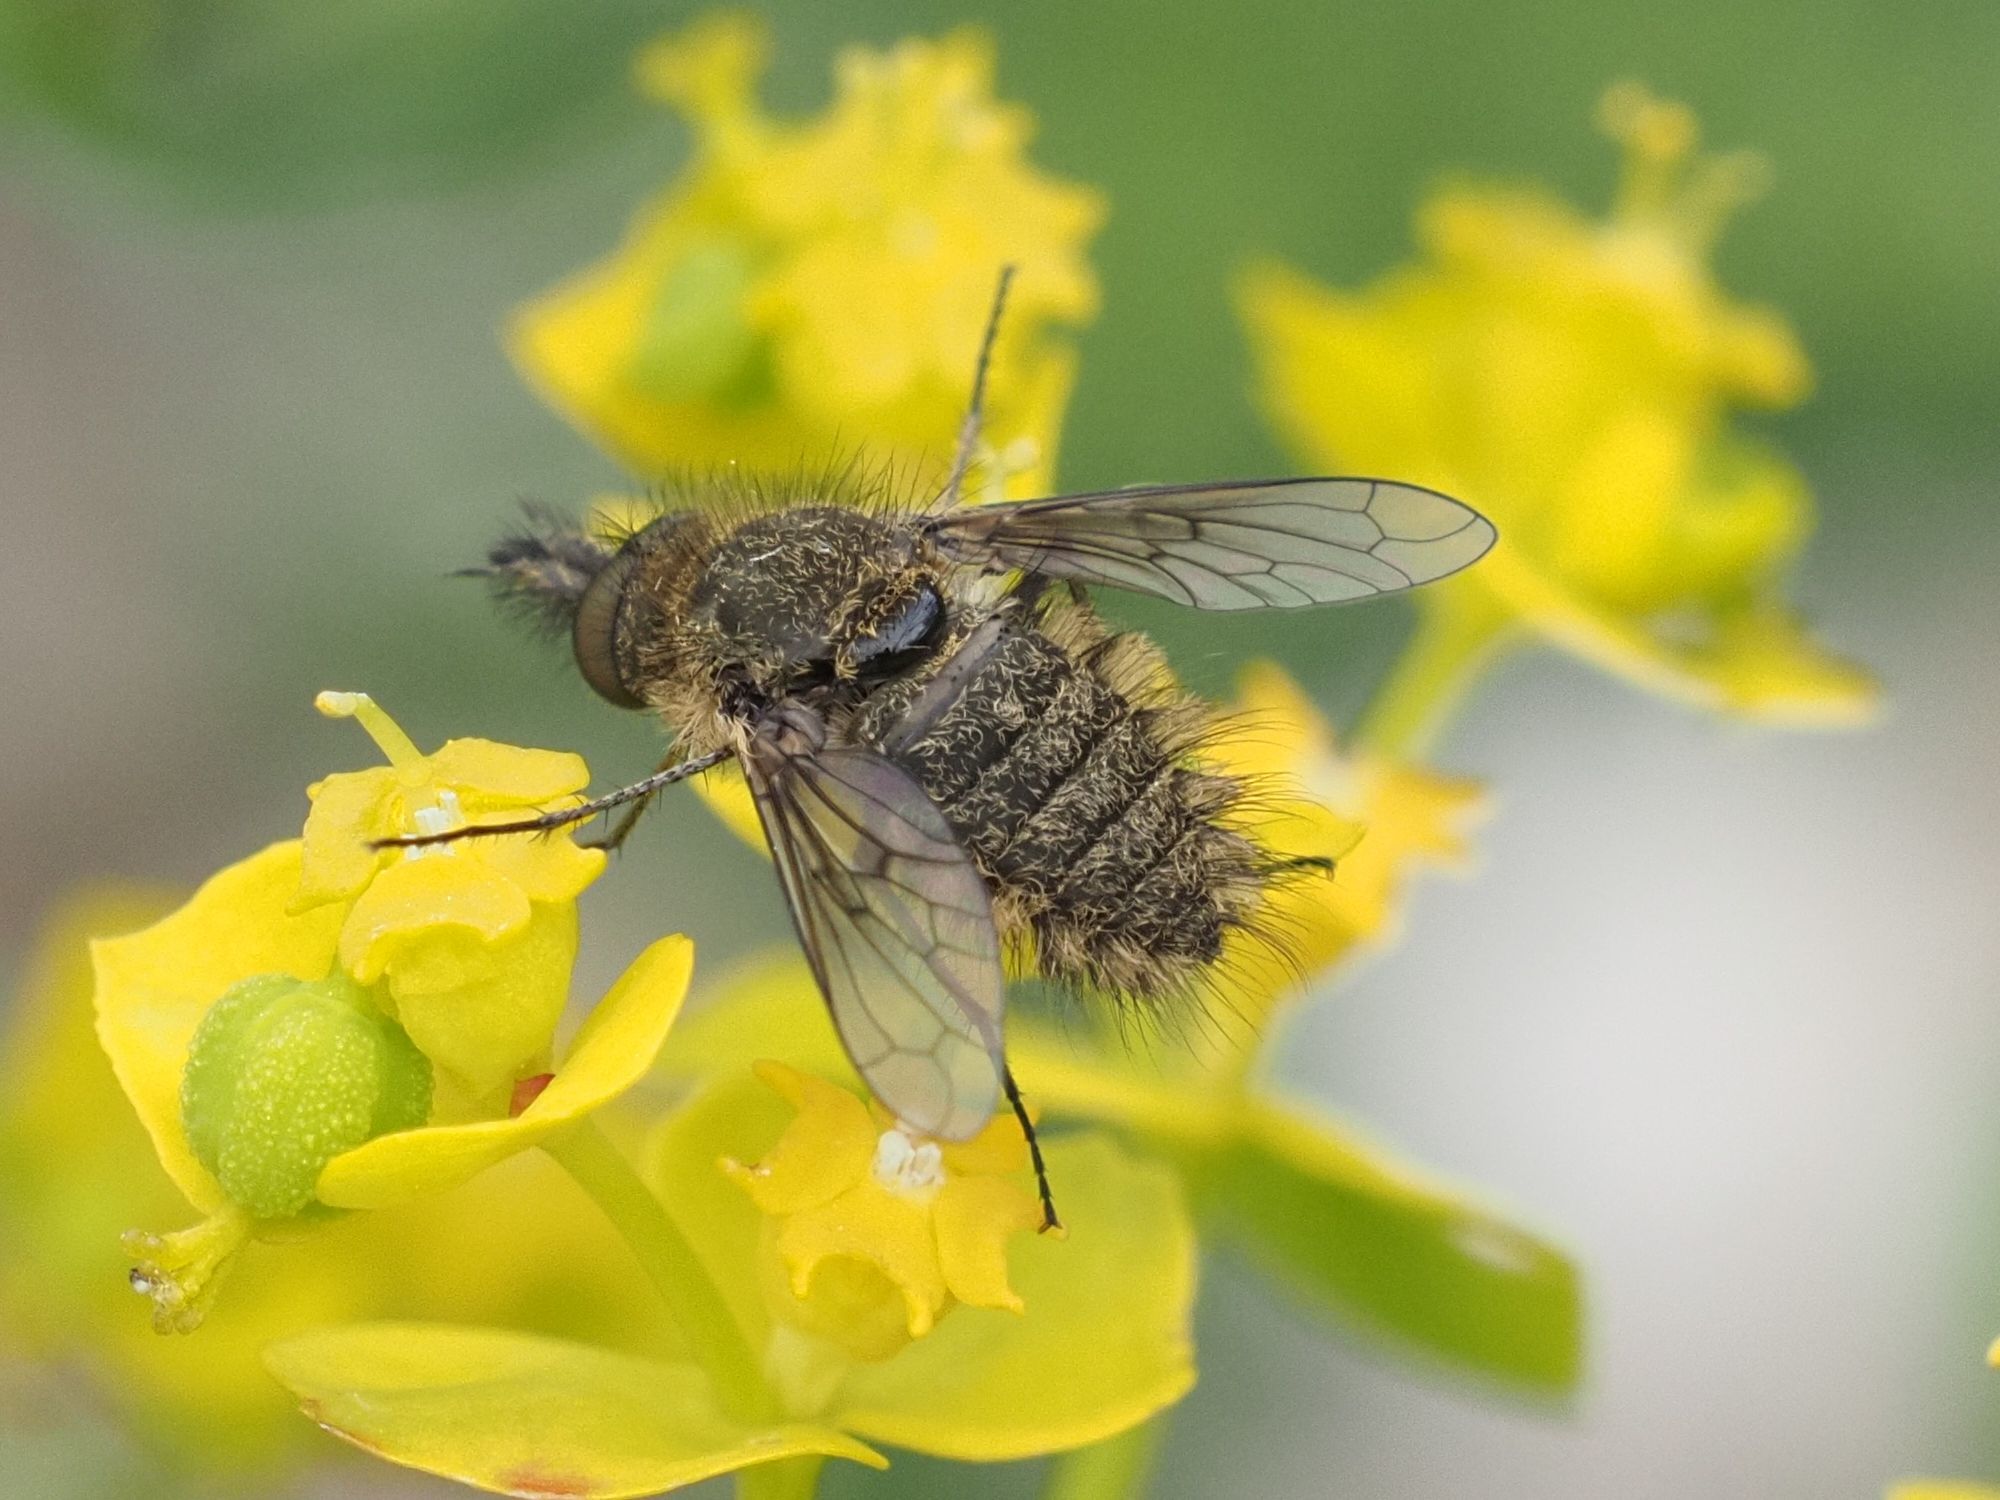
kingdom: Animalia
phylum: Arthropoda
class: Insecta
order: Diptera
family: Bombyliidae
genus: Conophorus
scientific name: Conophorus virescens
